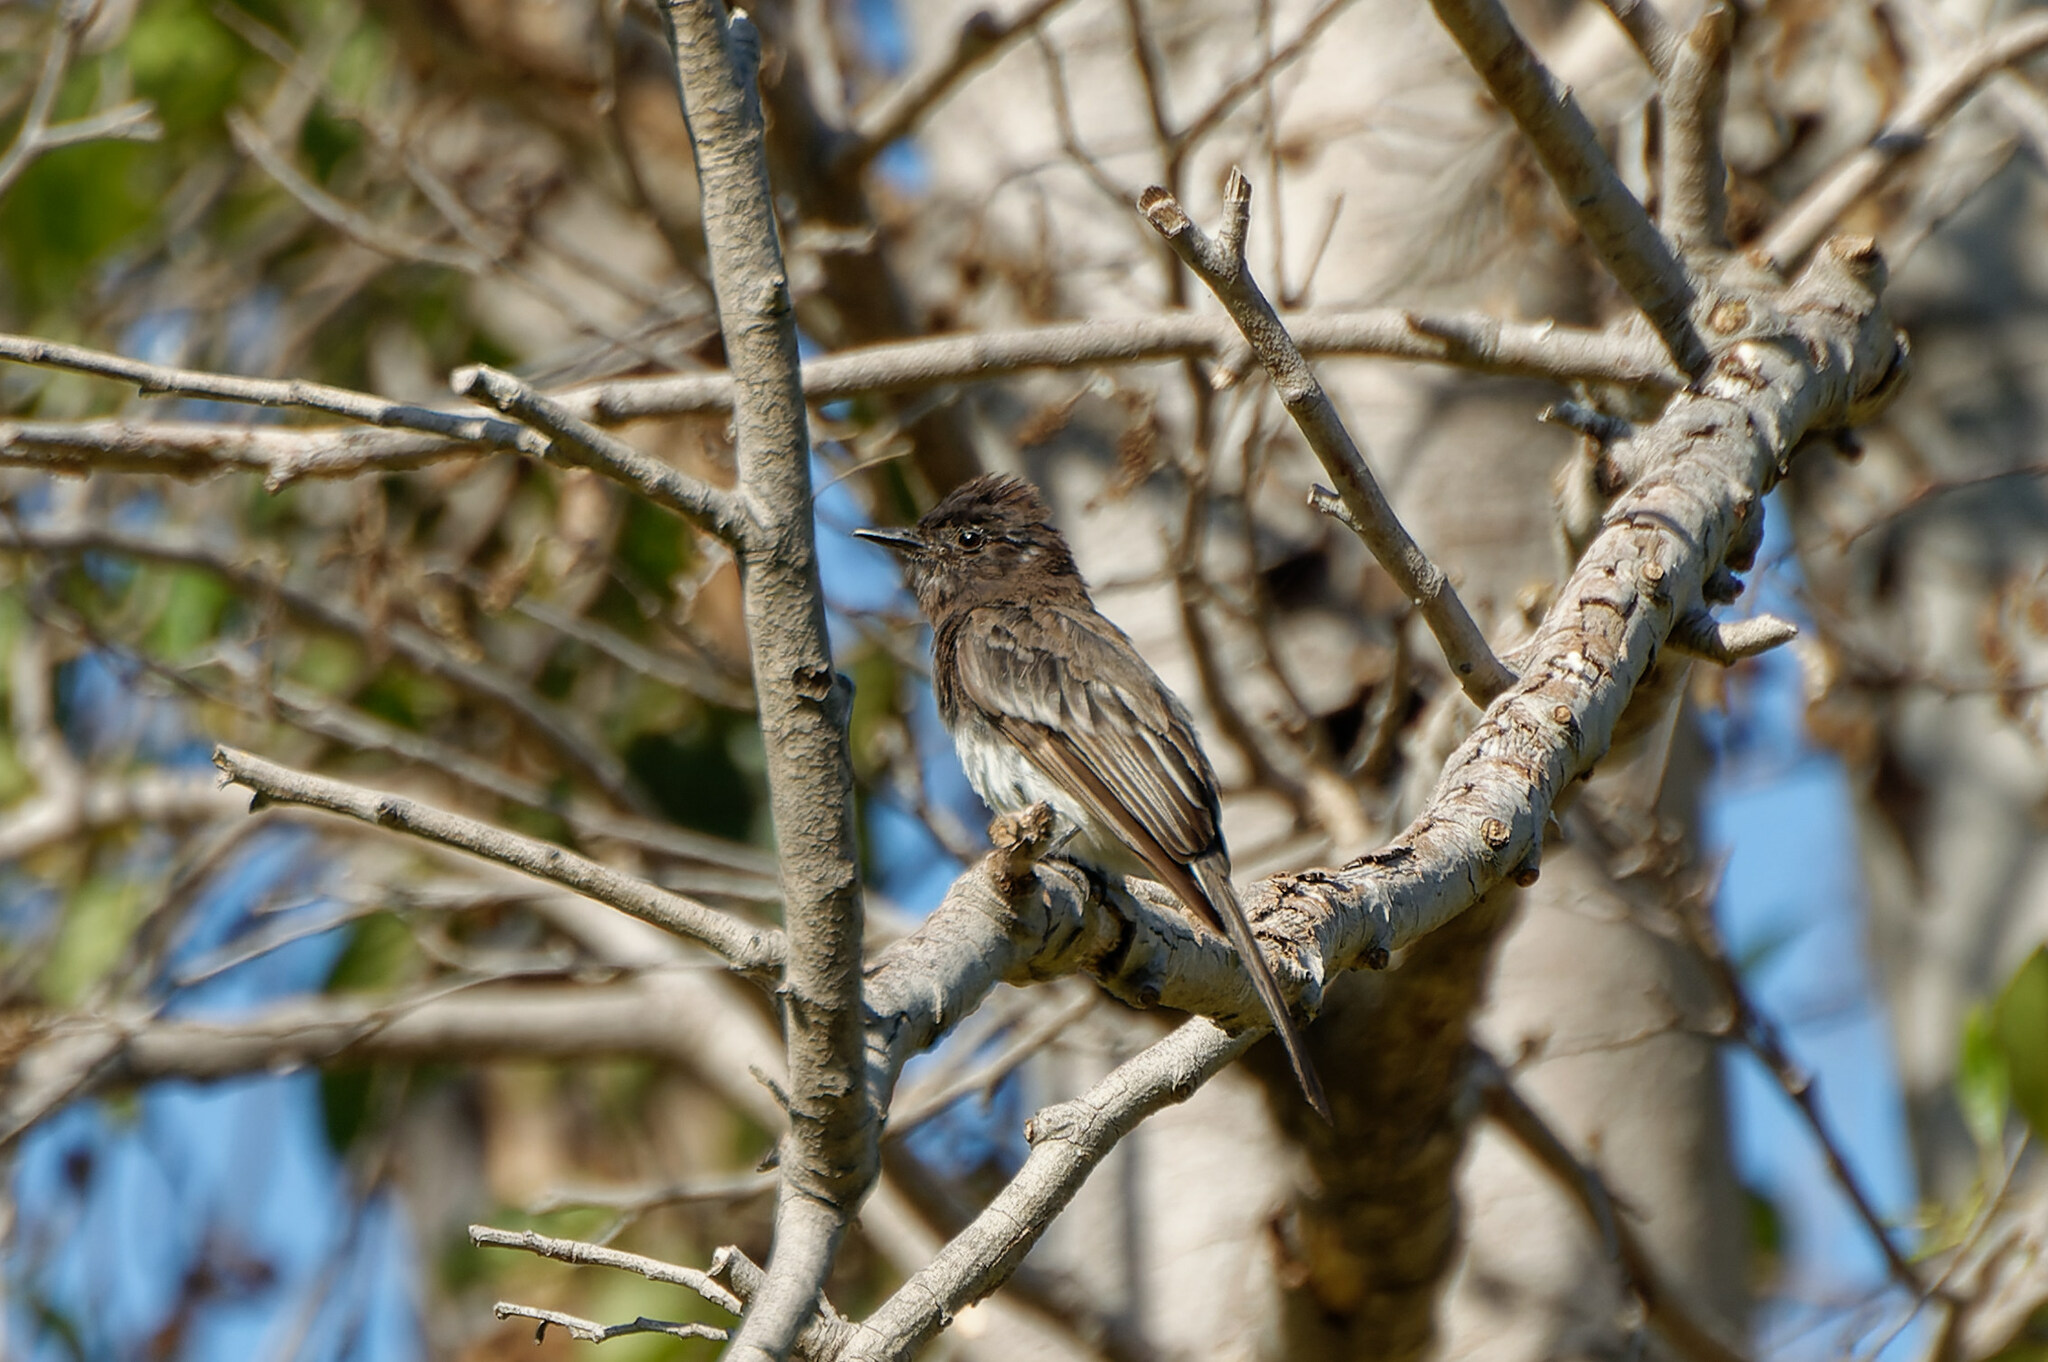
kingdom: Animalia
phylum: Chordata
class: Aves
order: Passeriformes
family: Tyrannidae
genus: Sayornis
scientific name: Sayornis nigricans
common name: Black phoebe
